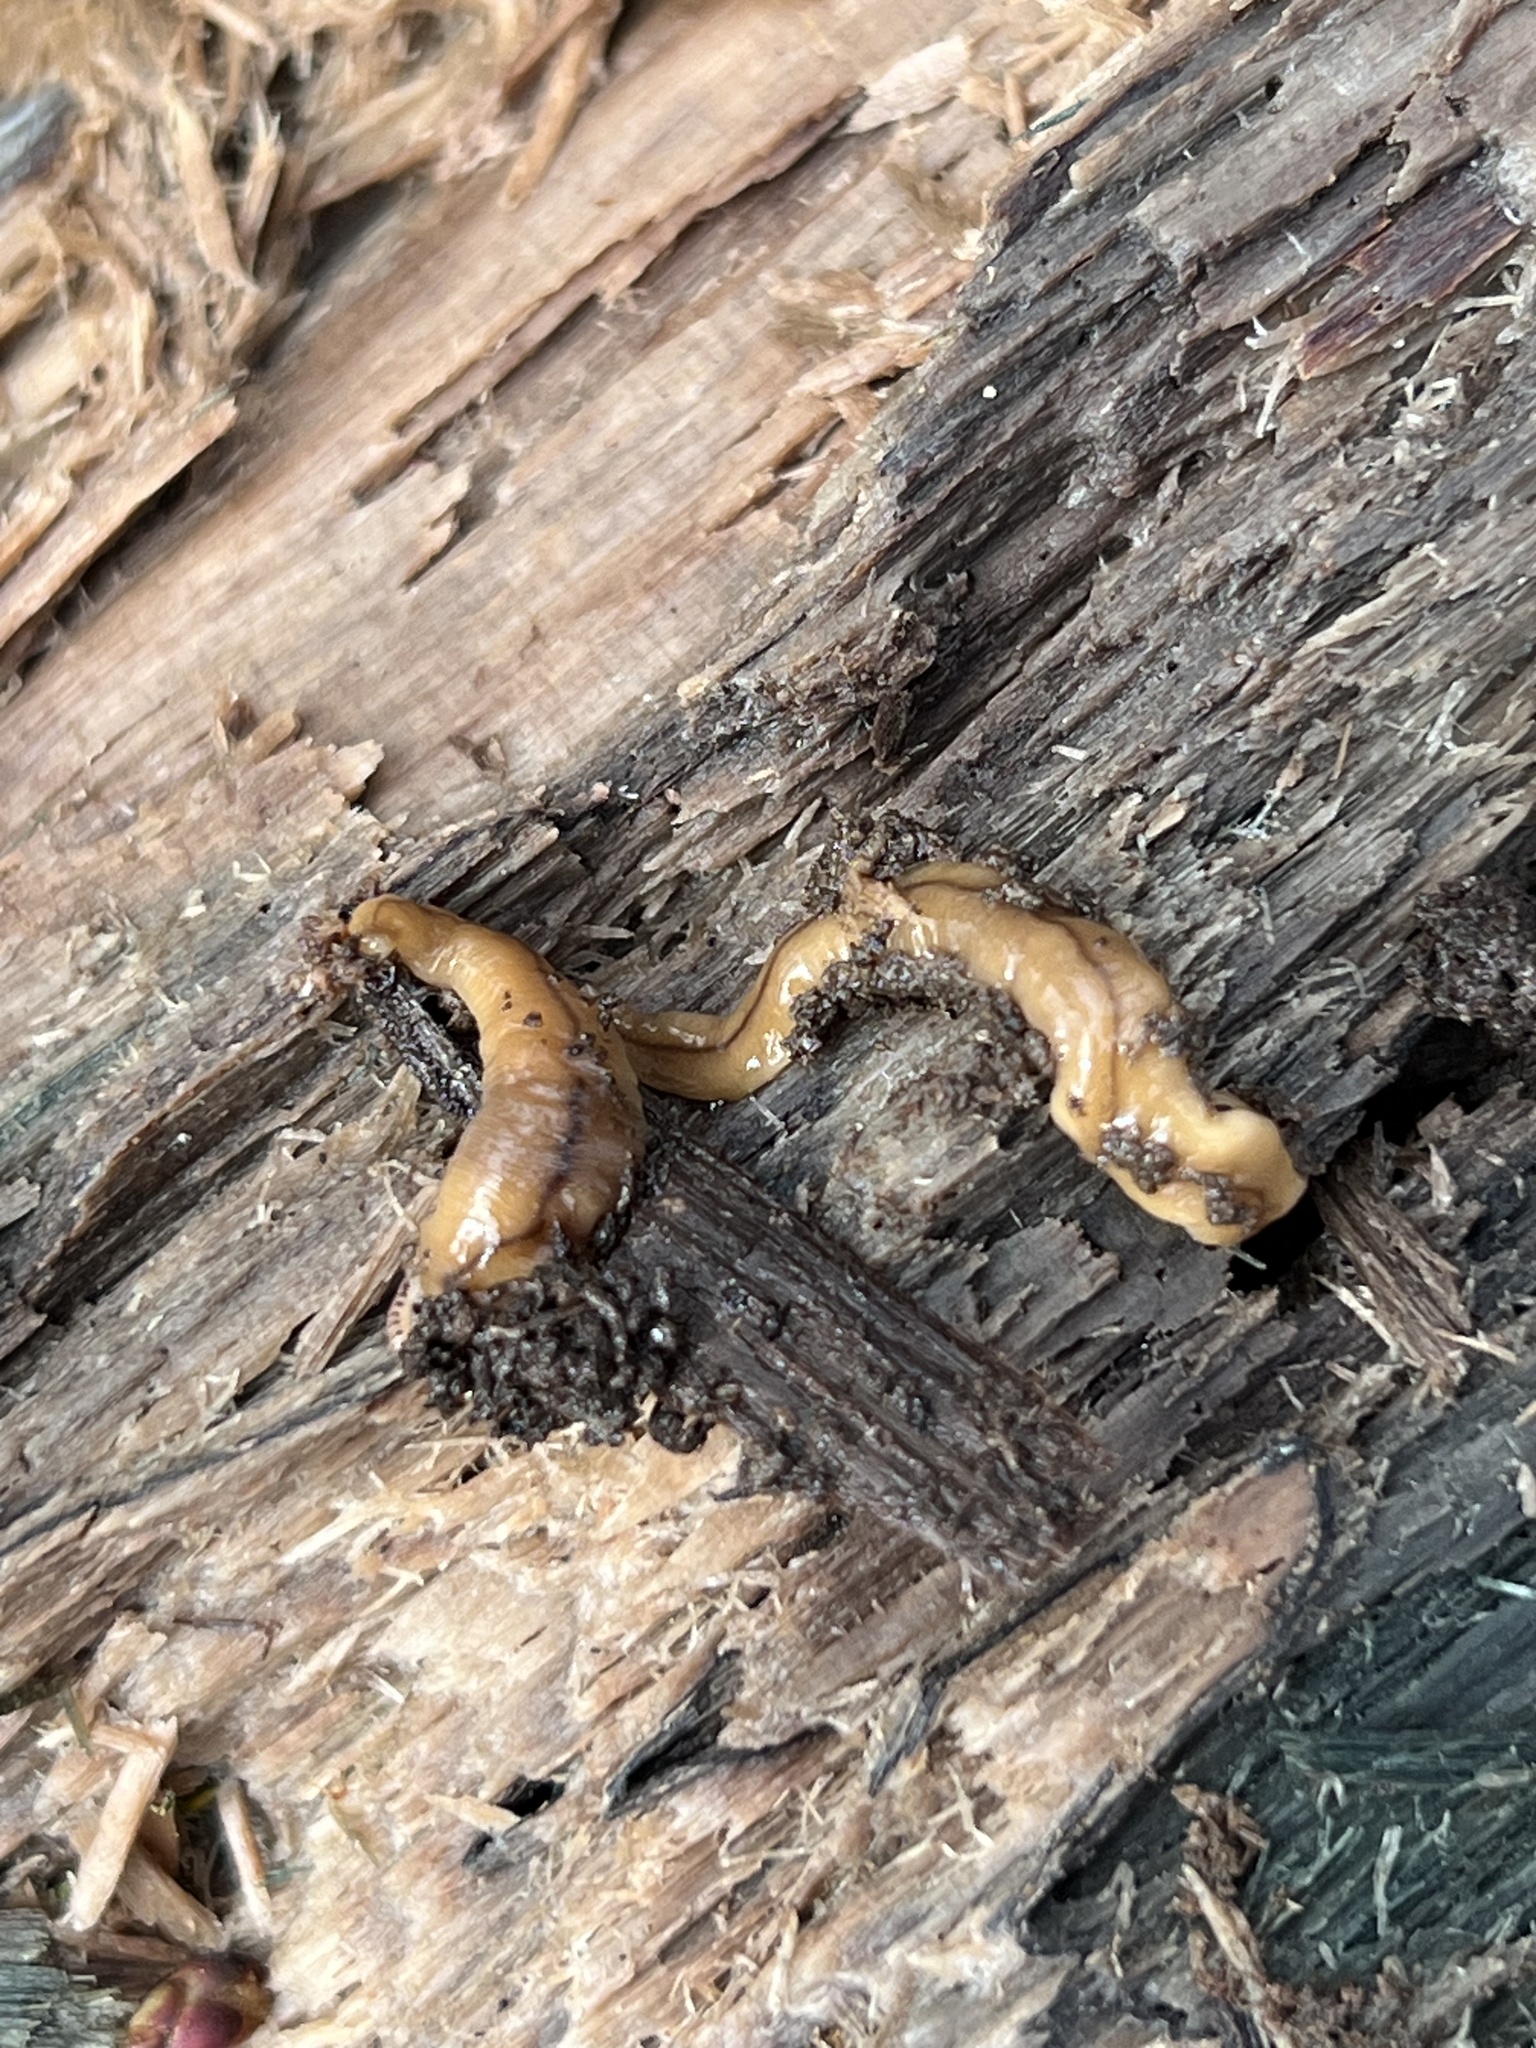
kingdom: Animalia
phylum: Platyhelminthes
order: Tricladida
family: Geoplanidae
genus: Bipalium
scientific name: Bipalium adventitium
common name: Land planarian
